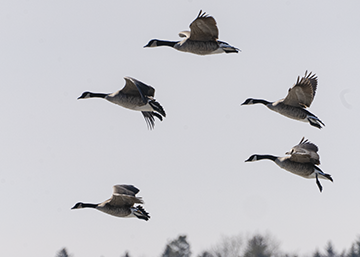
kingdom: Animalia
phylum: Chordata
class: Aves
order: Anseriformes
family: Anatidae
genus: Branta
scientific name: Branta canadensis
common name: Canada goose
